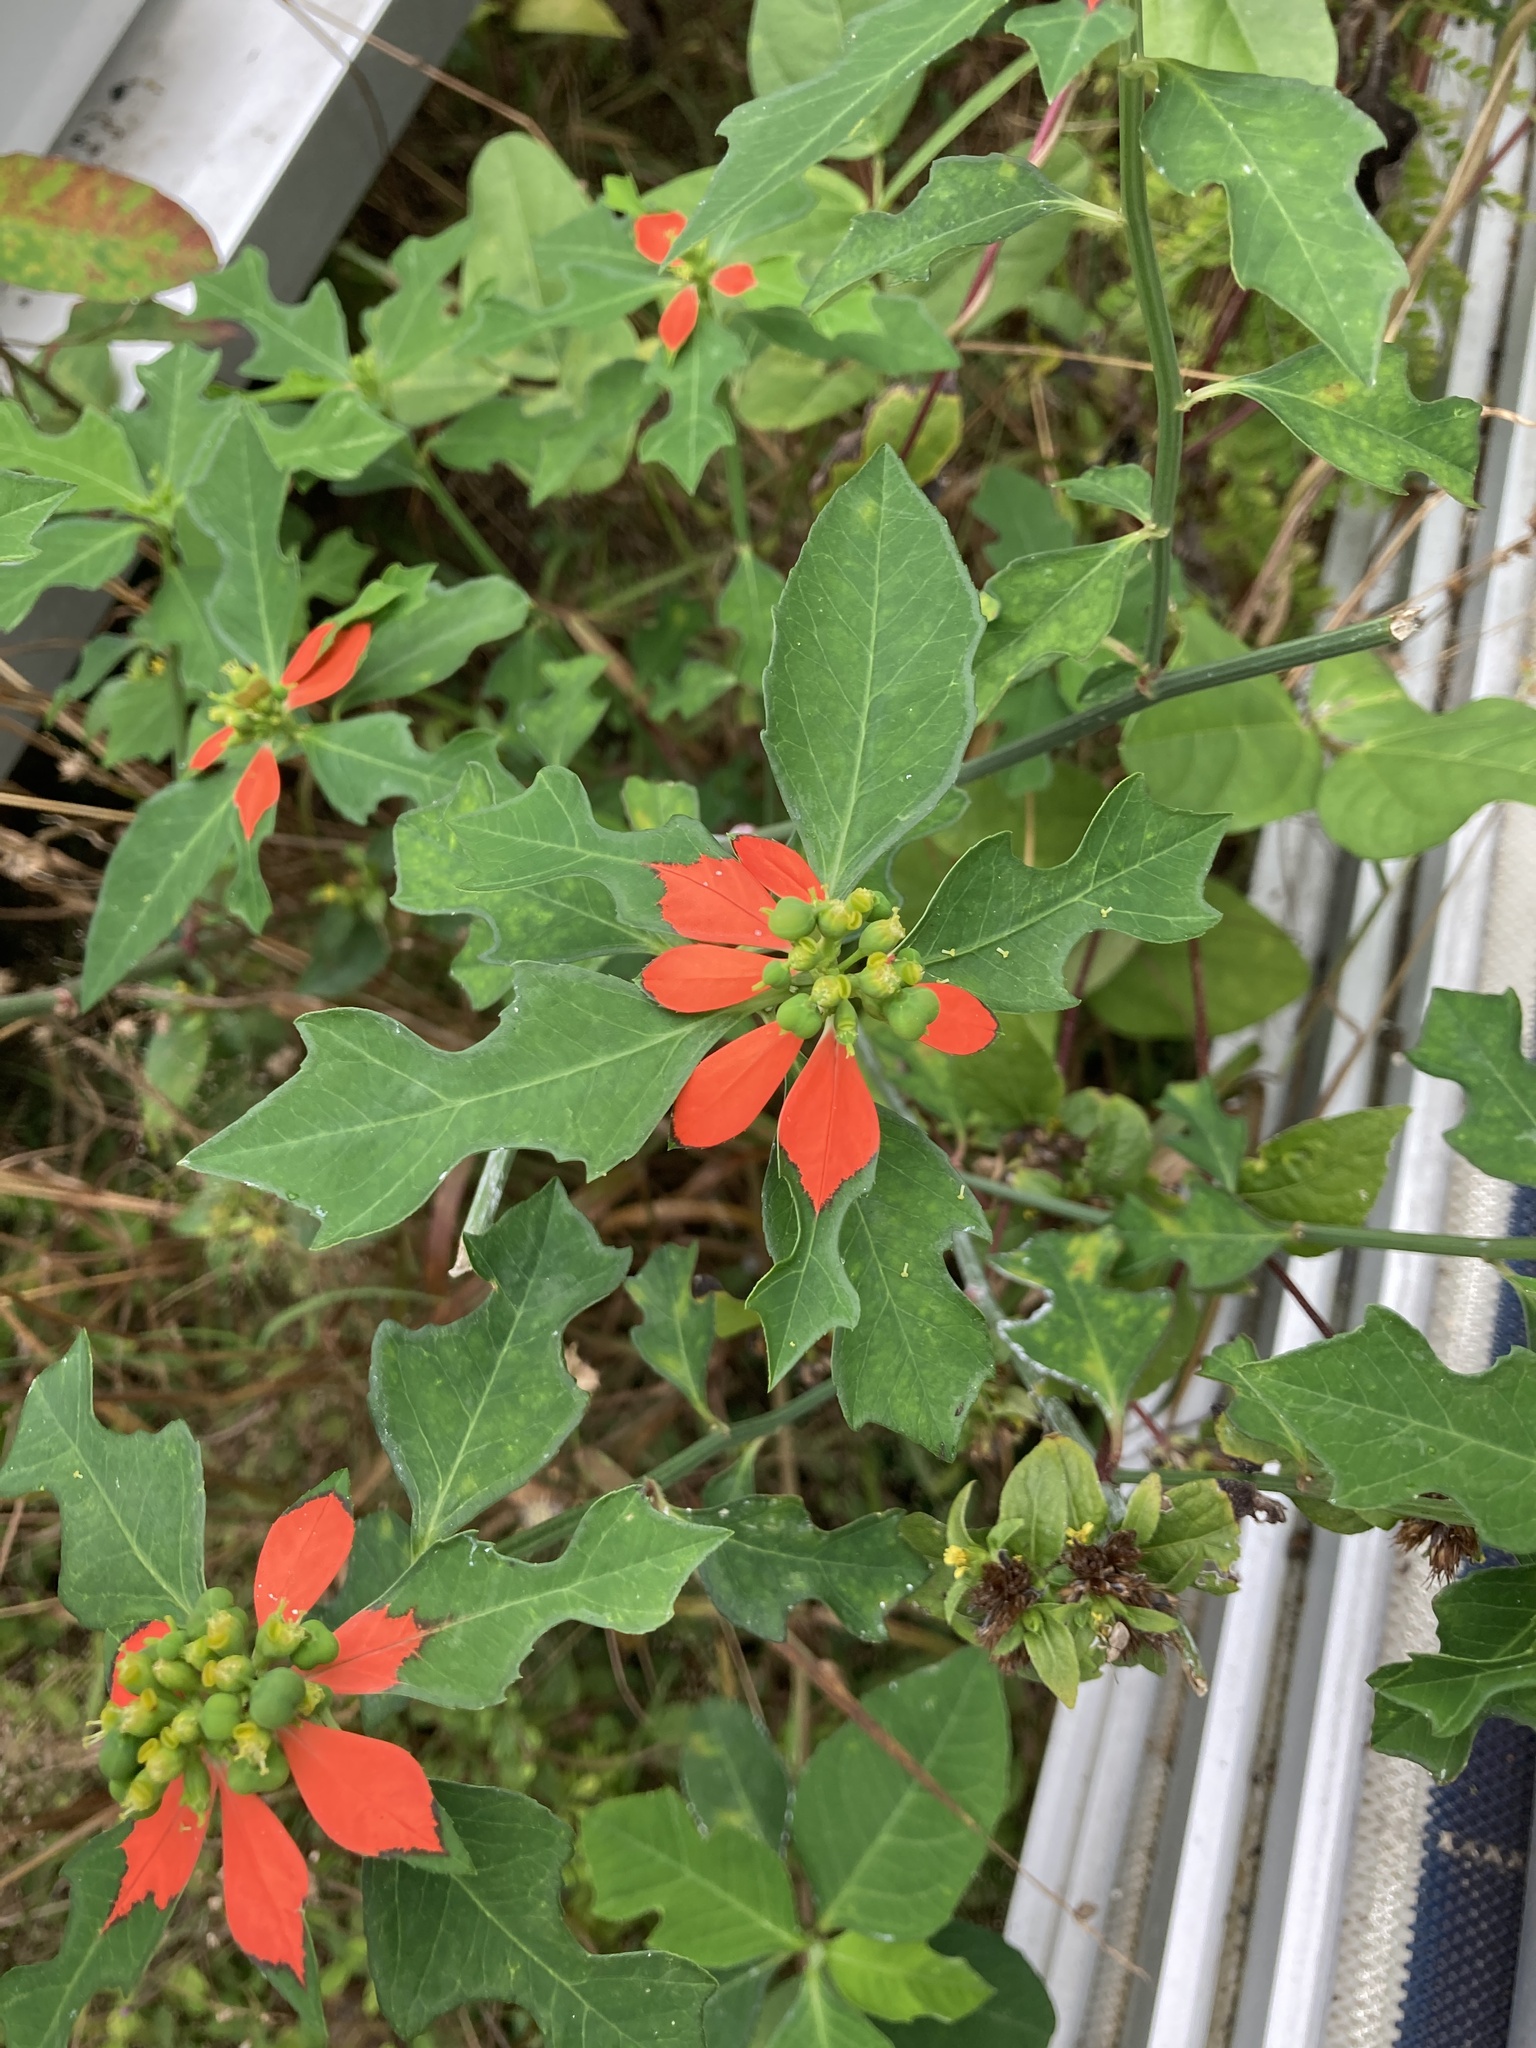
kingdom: Plantae
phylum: Tracheophyta
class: Magnoliopsida
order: Malpighiales
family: Euphorbiaceae
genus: Euphorbia
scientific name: Euphorbia heterophylla
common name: Mexican fireplant
